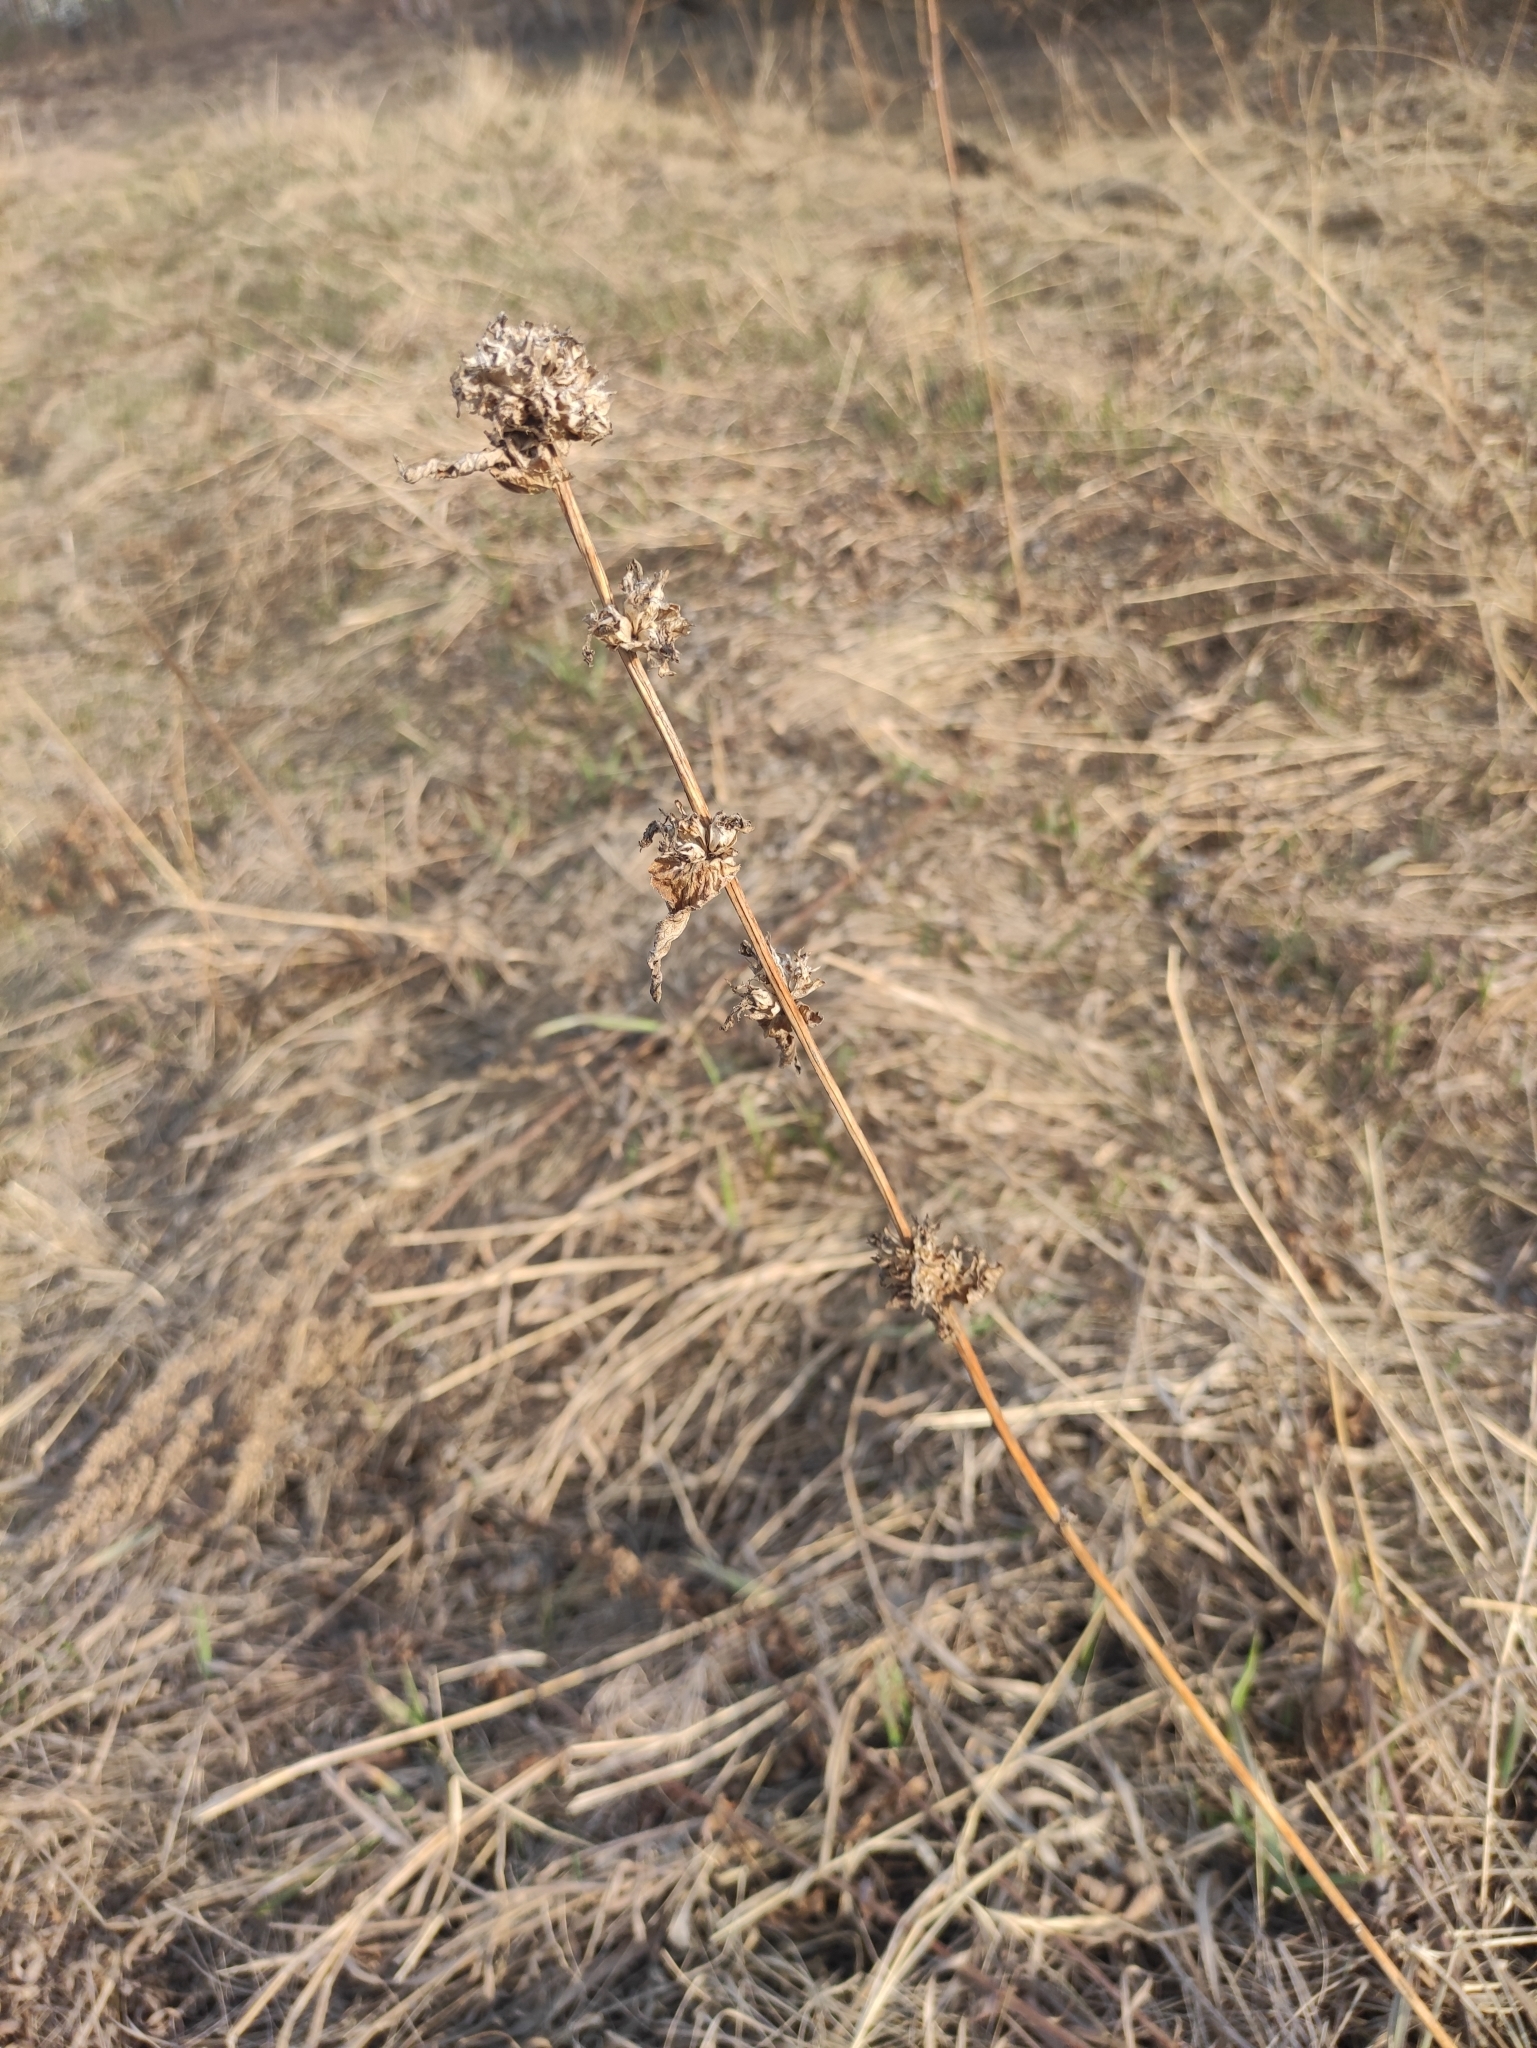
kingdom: Plantae
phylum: Tracheophyta
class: Magnoliopsida
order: Asterales
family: Campanulaceae
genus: Campanula
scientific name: Campanula glomerata
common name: Clustered bellflower
